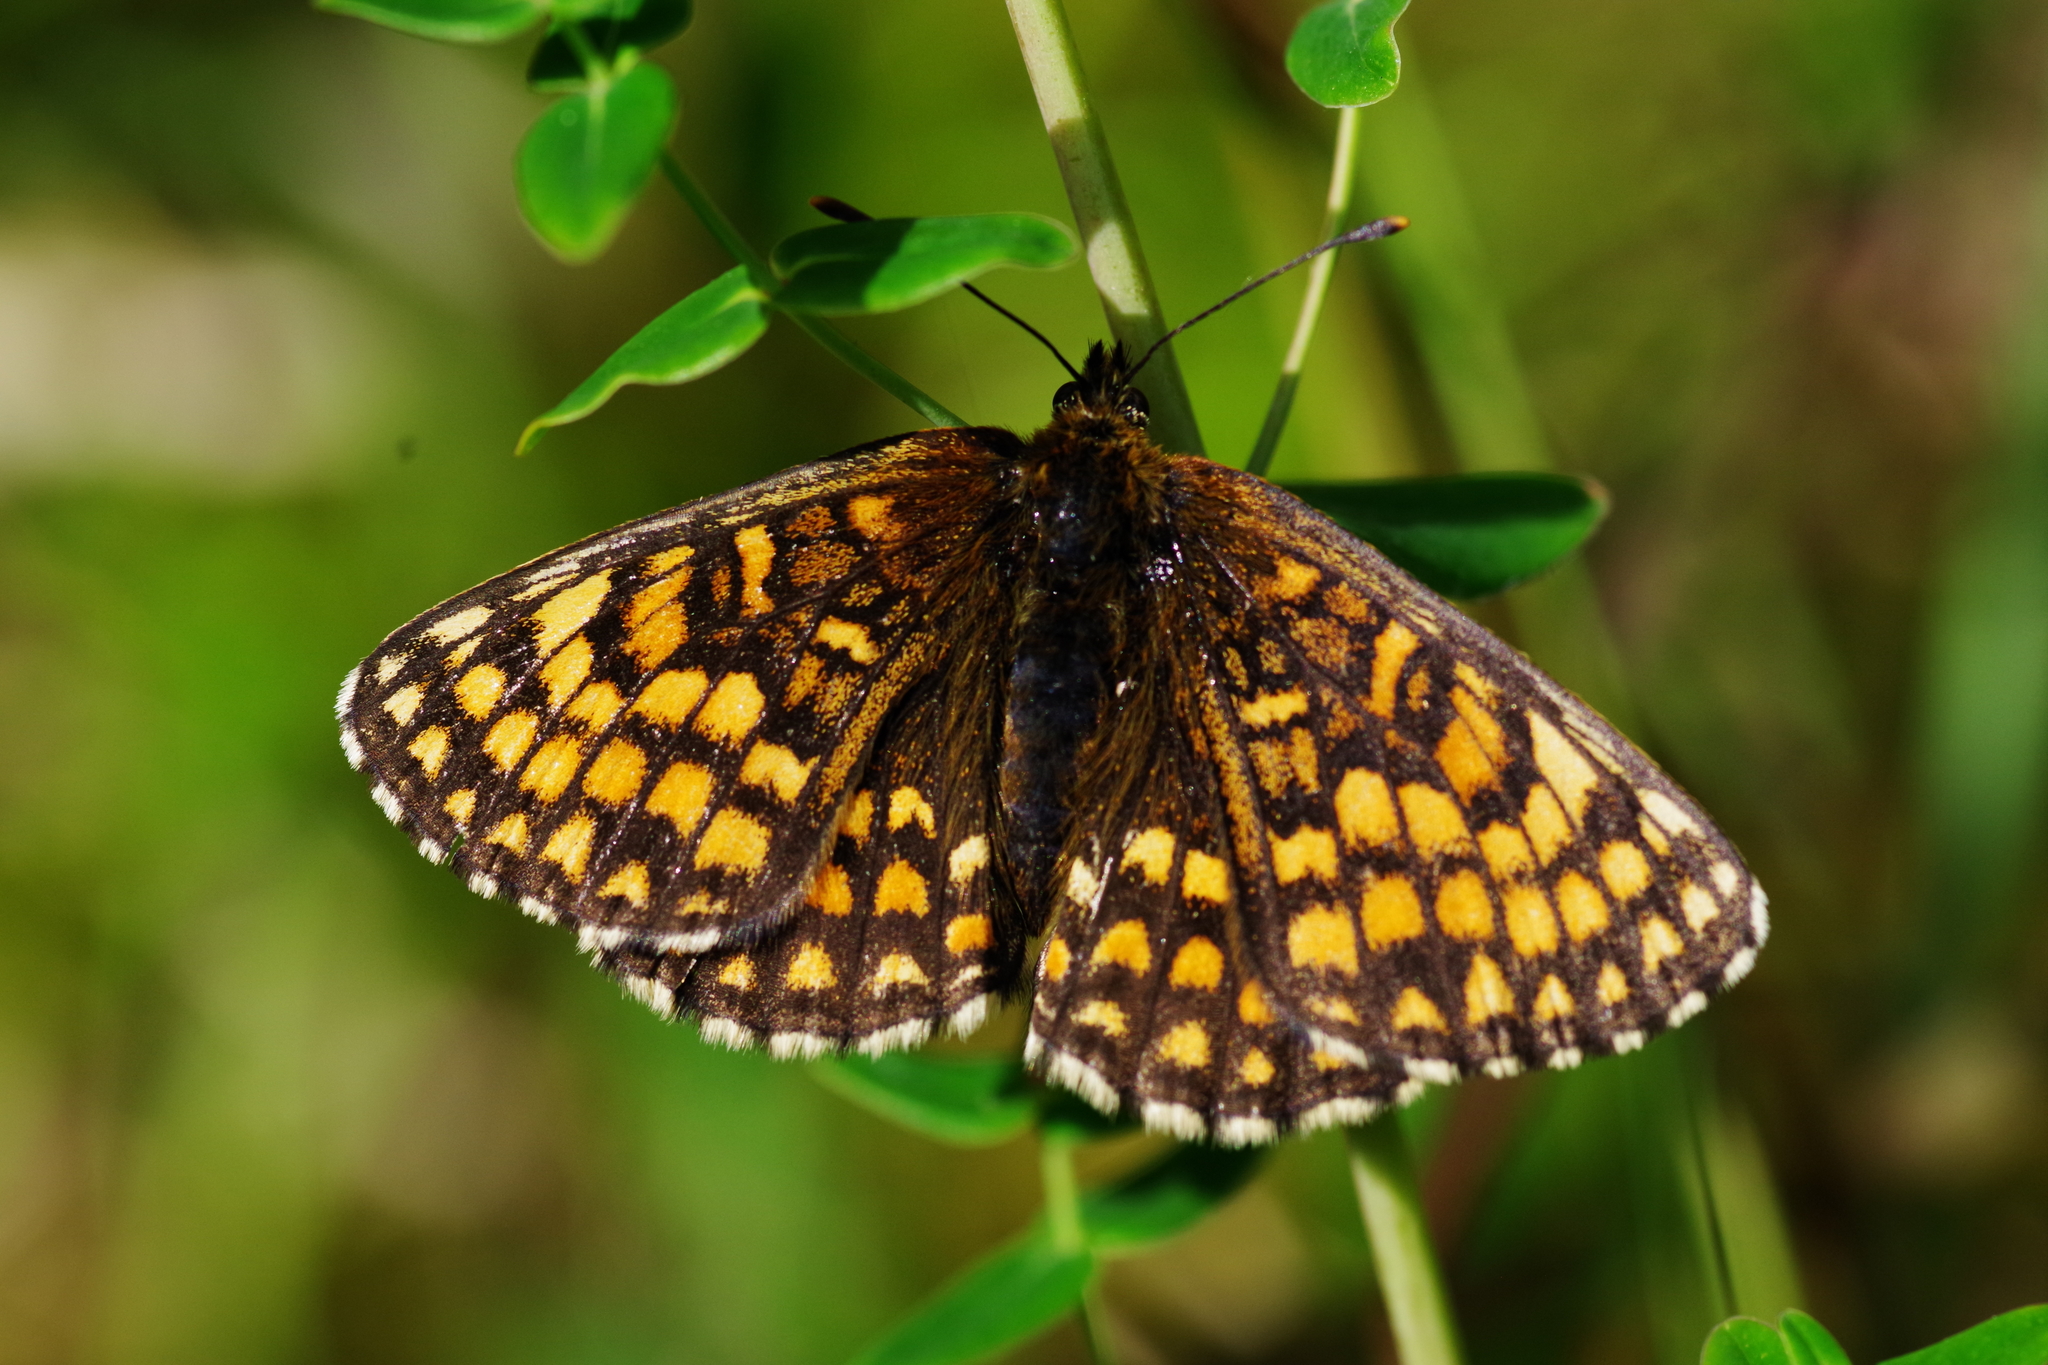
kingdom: Animalia
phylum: Arthropoda
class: Insecta
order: Lepidoptera
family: Nymphalidae
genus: Melitaea
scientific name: Melitaea athalia
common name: Heath fritillary
